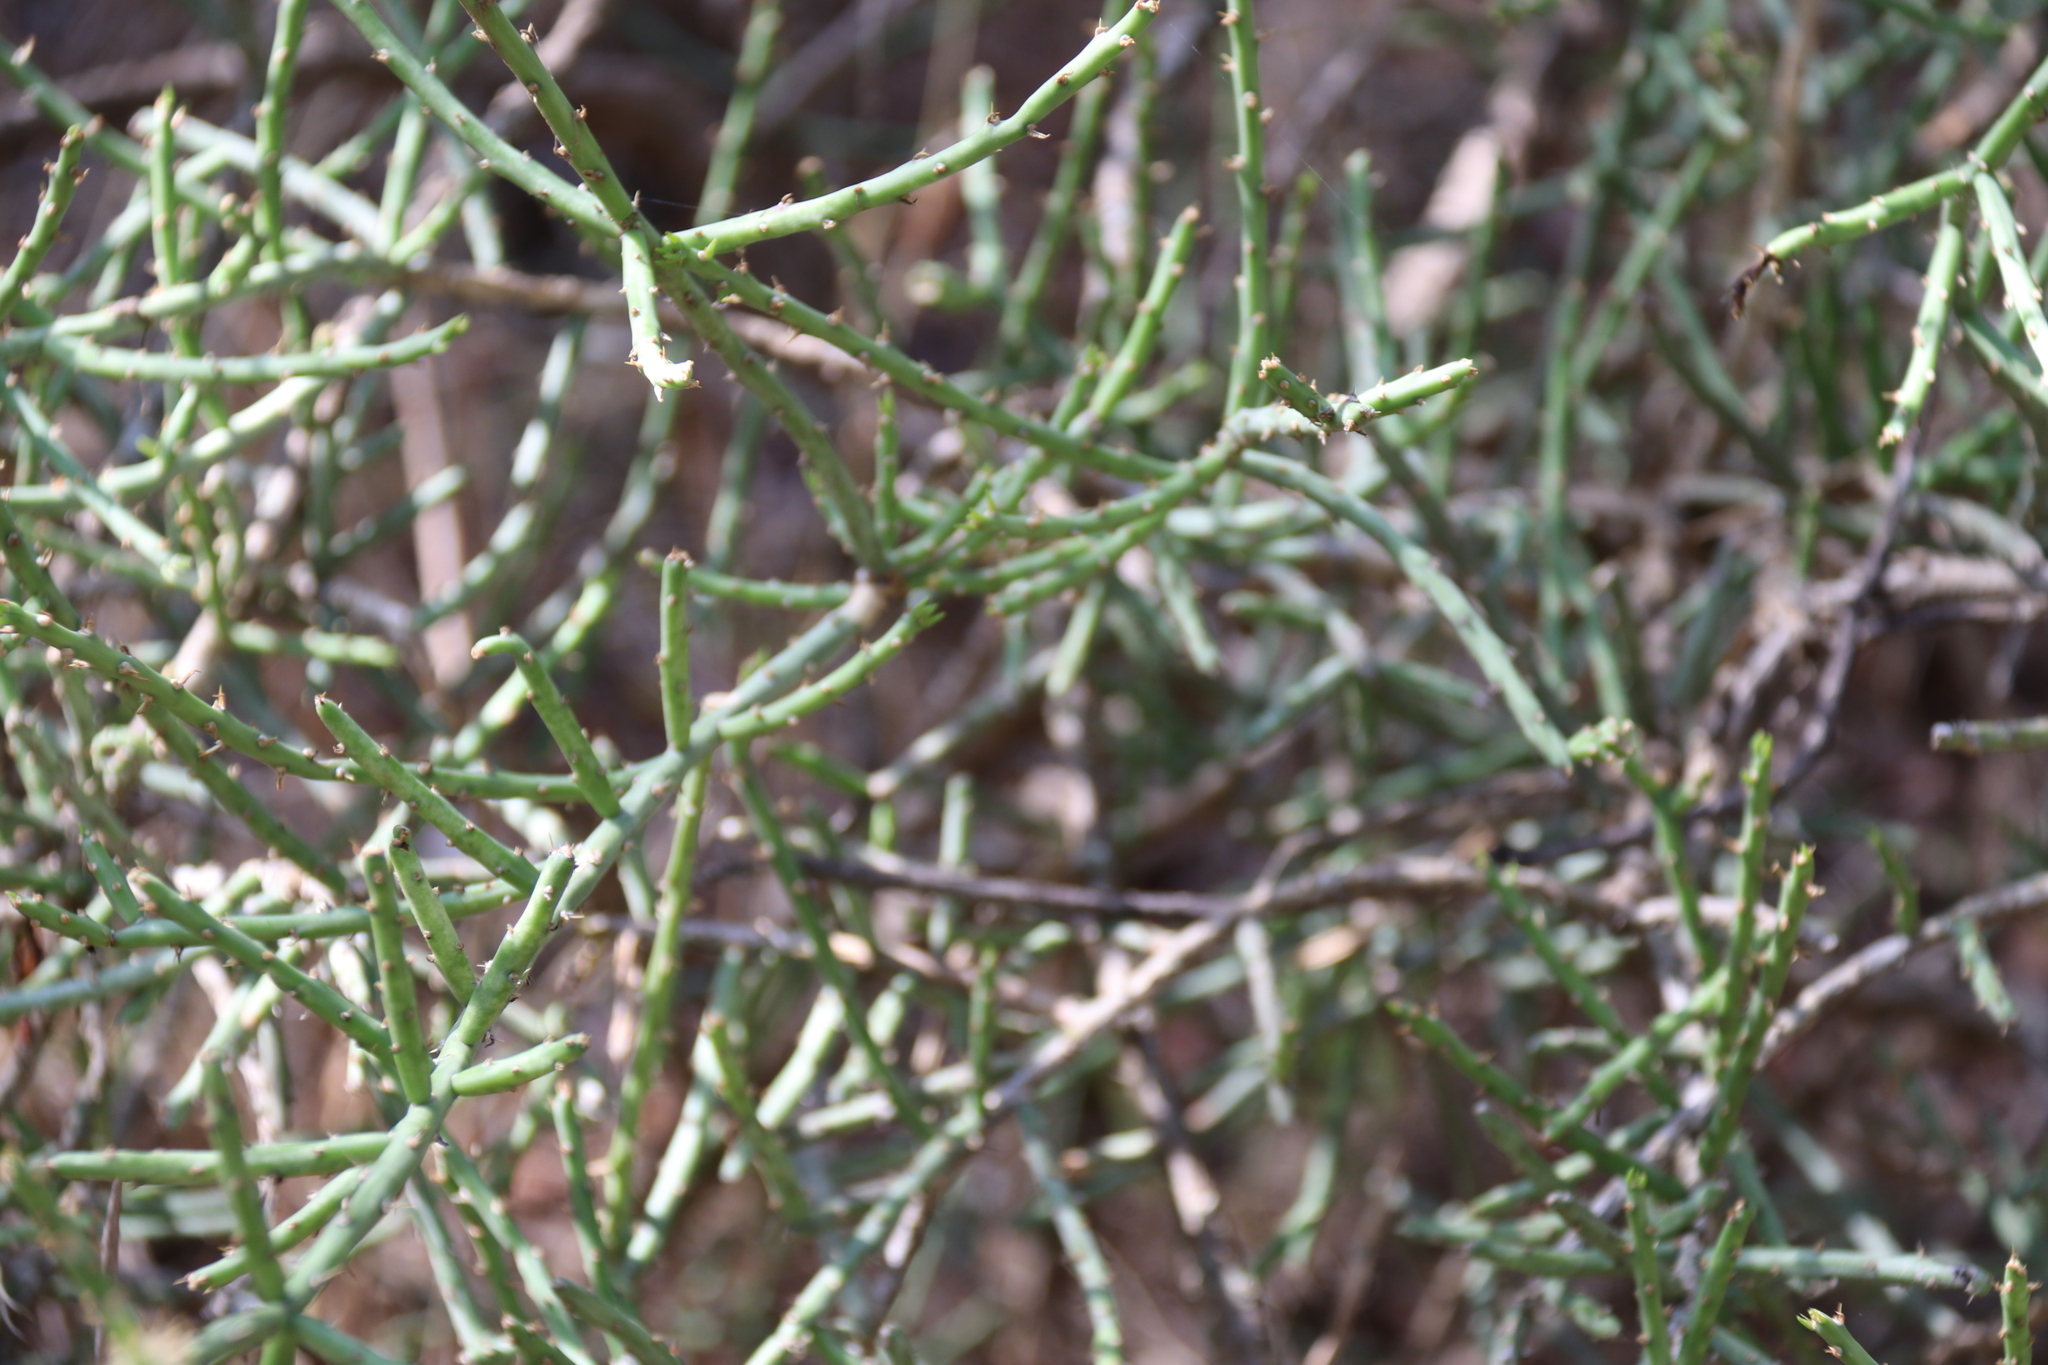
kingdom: Plantae
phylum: Tracheophyta
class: Magnoliopsida
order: Caryophyllales
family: Cactaceae
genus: Cylindropuntia
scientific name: Cylindropuntia leptocaulis
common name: Christmas cactus
